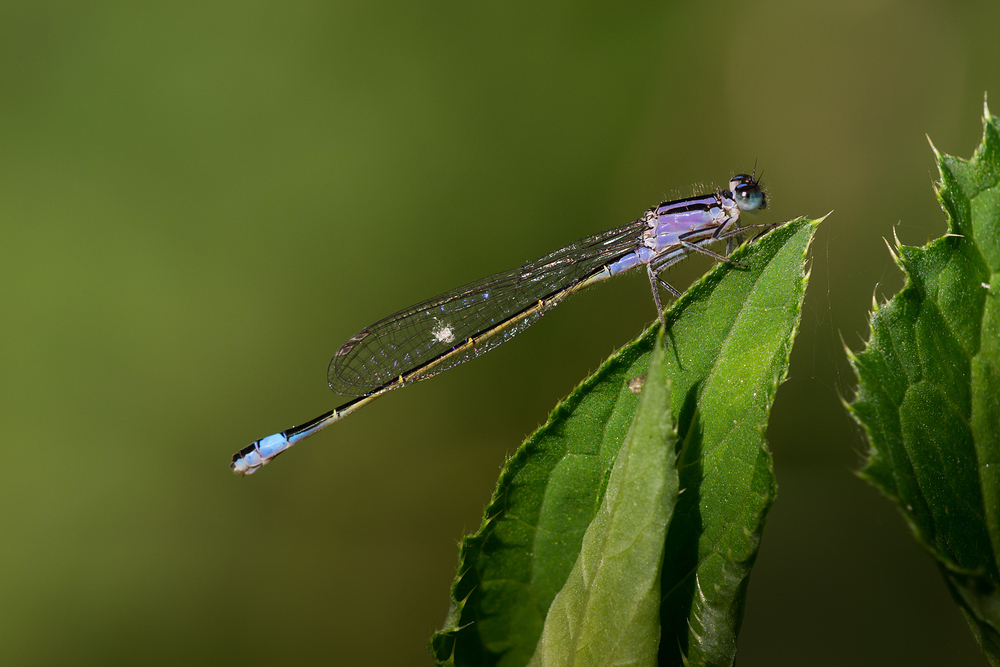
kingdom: Animalia
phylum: Arthropoda
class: Insecta
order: Odonata
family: Coenagrionidae
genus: Ischnura
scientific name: Ischnura elegans
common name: Blue-tailed damselfly
